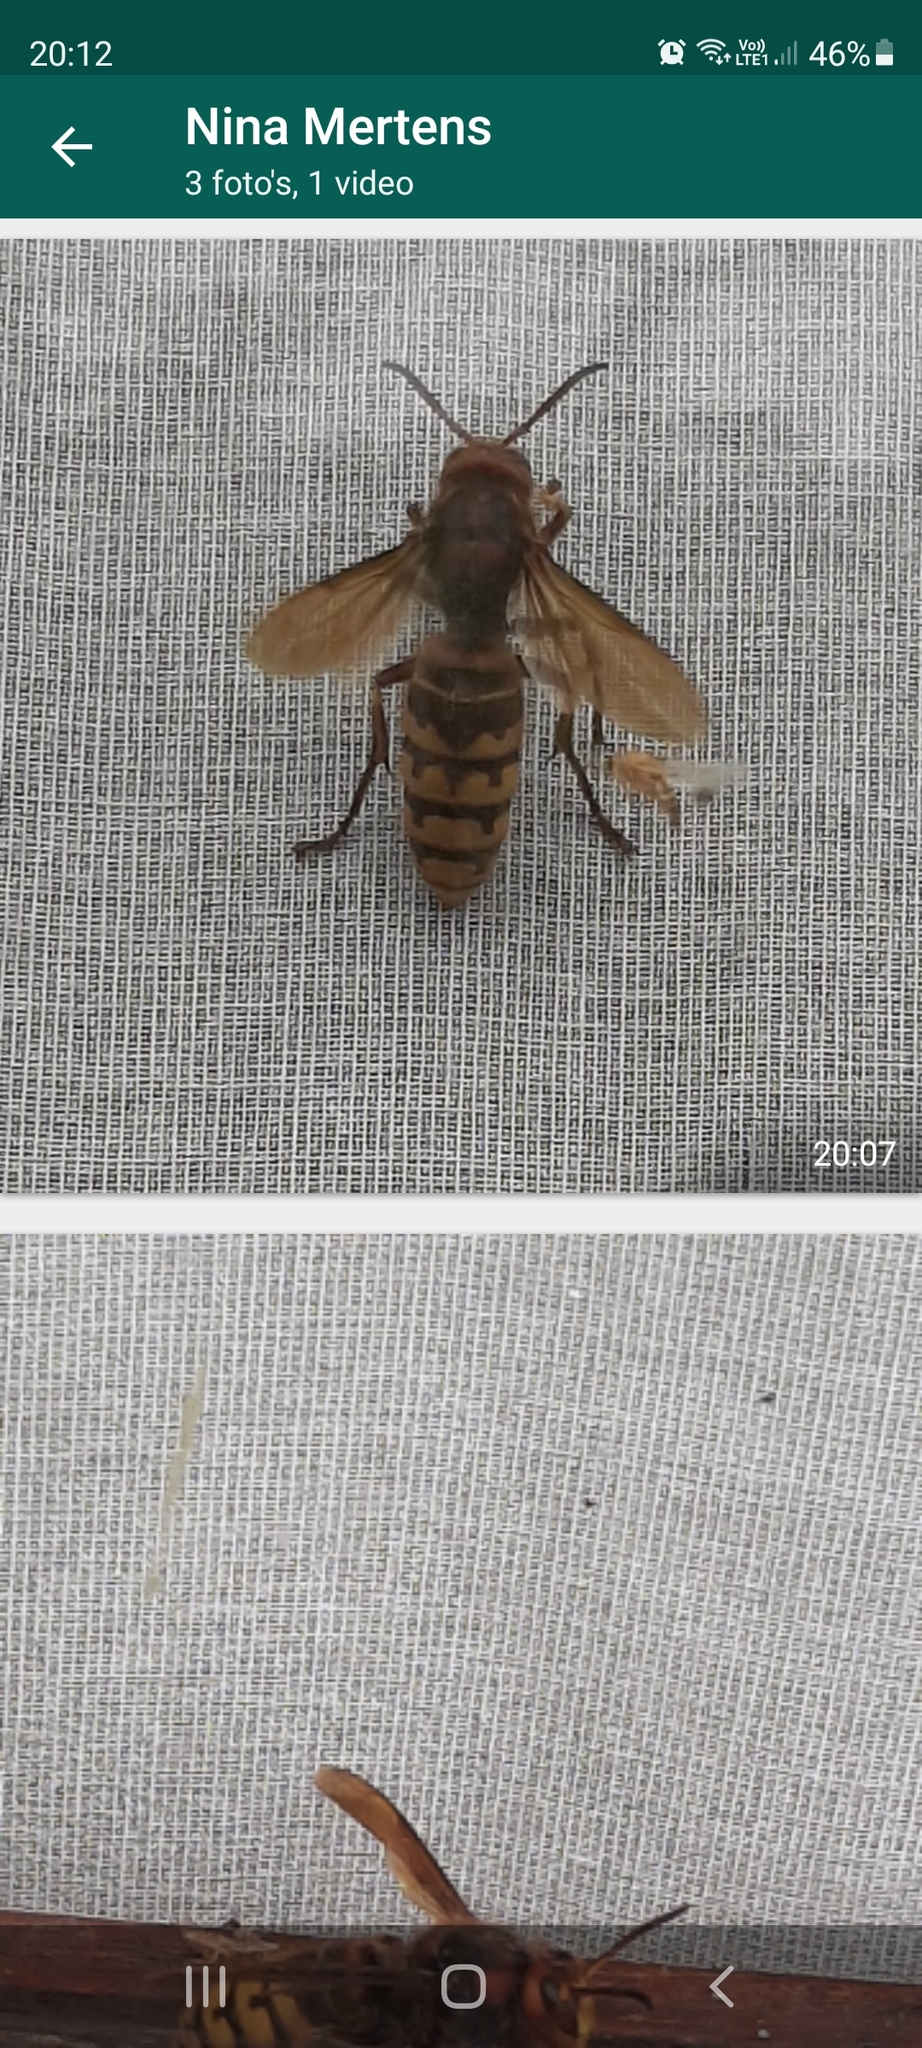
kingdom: Animalia
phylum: Arthropoda
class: Insecta
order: Hymenoptera
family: Vespidae
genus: Vespa
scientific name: Vespa crabro
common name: Hornet
